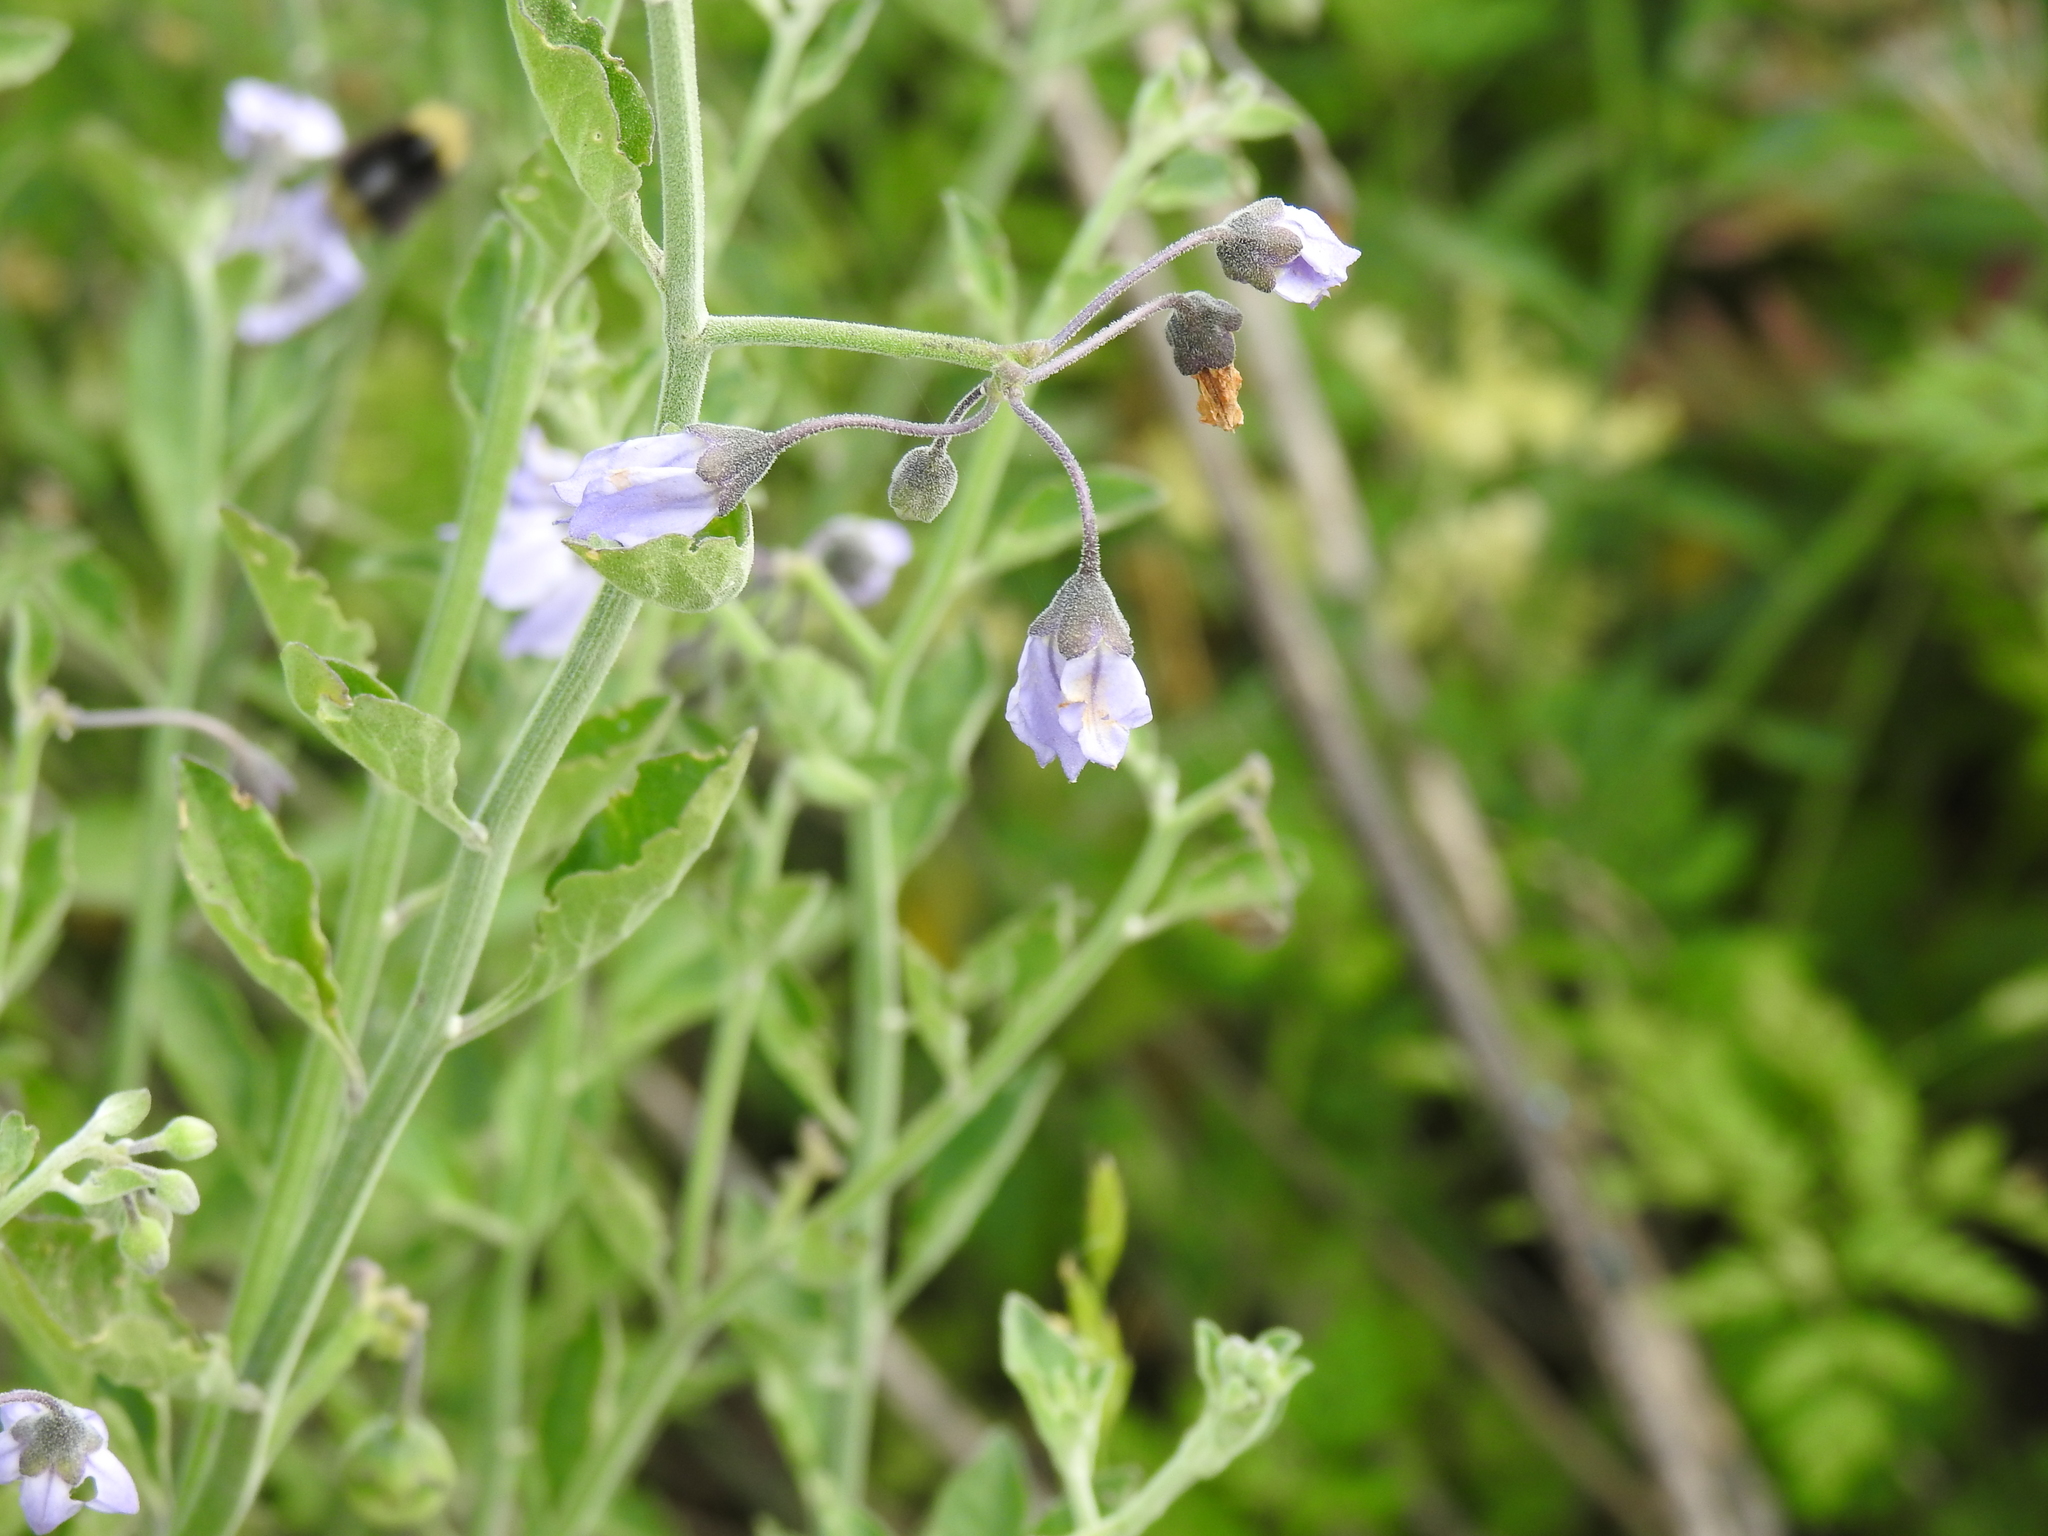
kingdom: Plantae
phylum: Tracheophyta
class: Magnoliopsida
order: Solanales
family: Solanaceae
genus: Solanum
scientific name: Solanum umbelliferum
